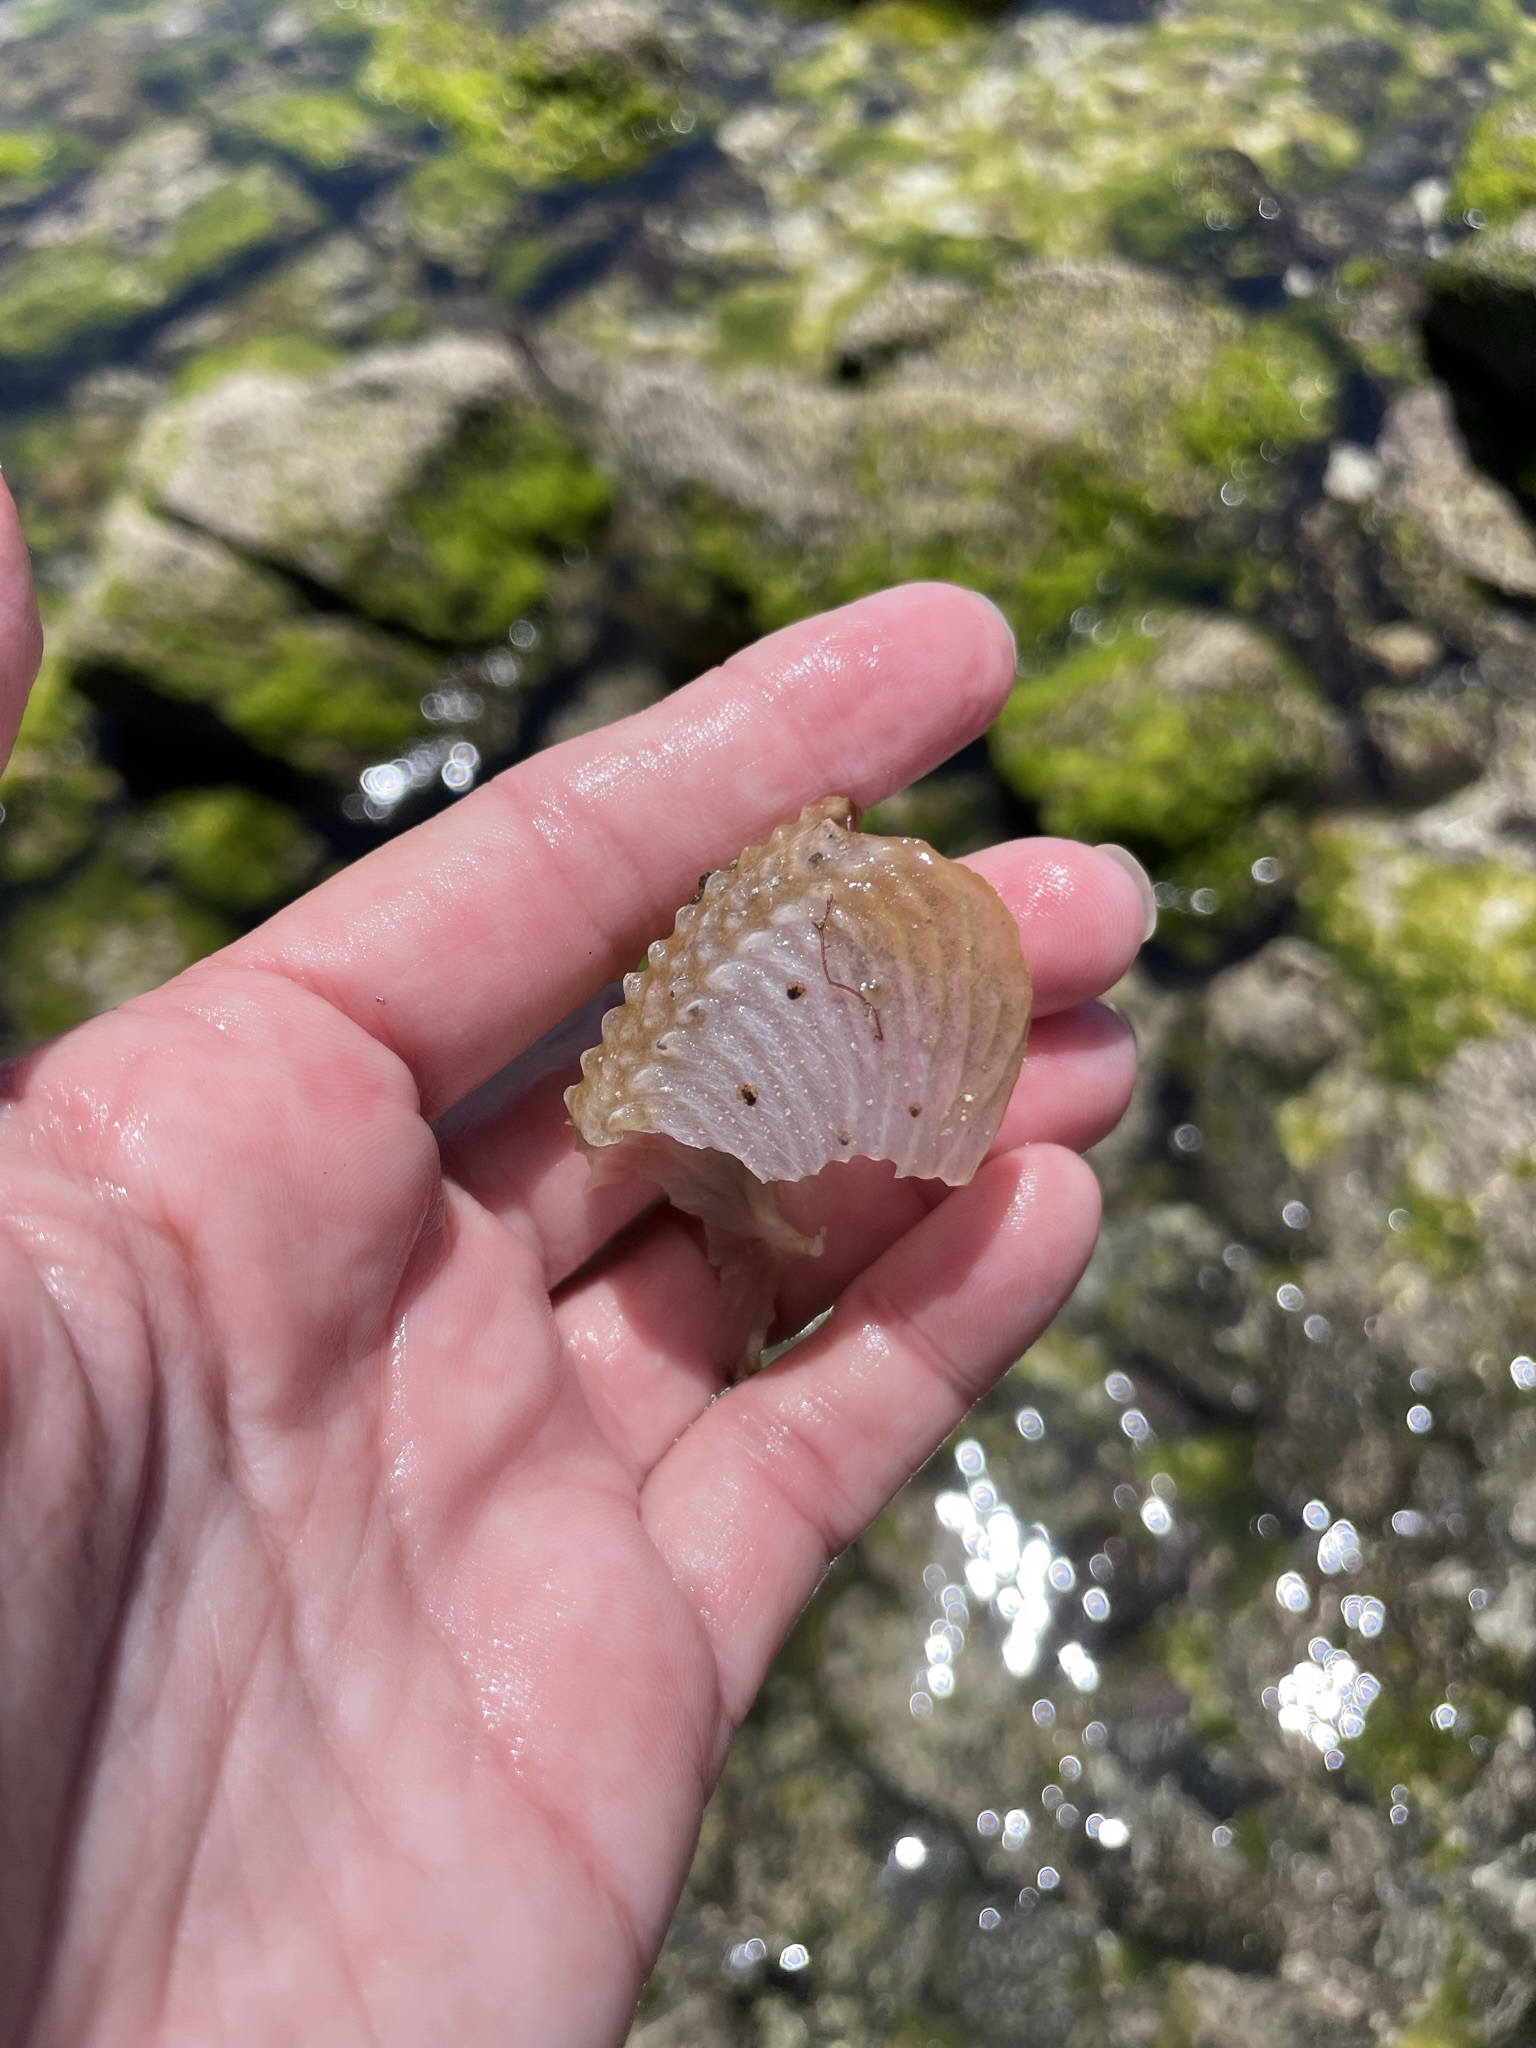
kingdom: Animalia
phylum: Mollusca
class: Cephalopoda
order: Octopoda
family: Argonautidae
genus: Argonauta
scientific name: Argonauta nouryi
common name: Rough-keeled argonaut
